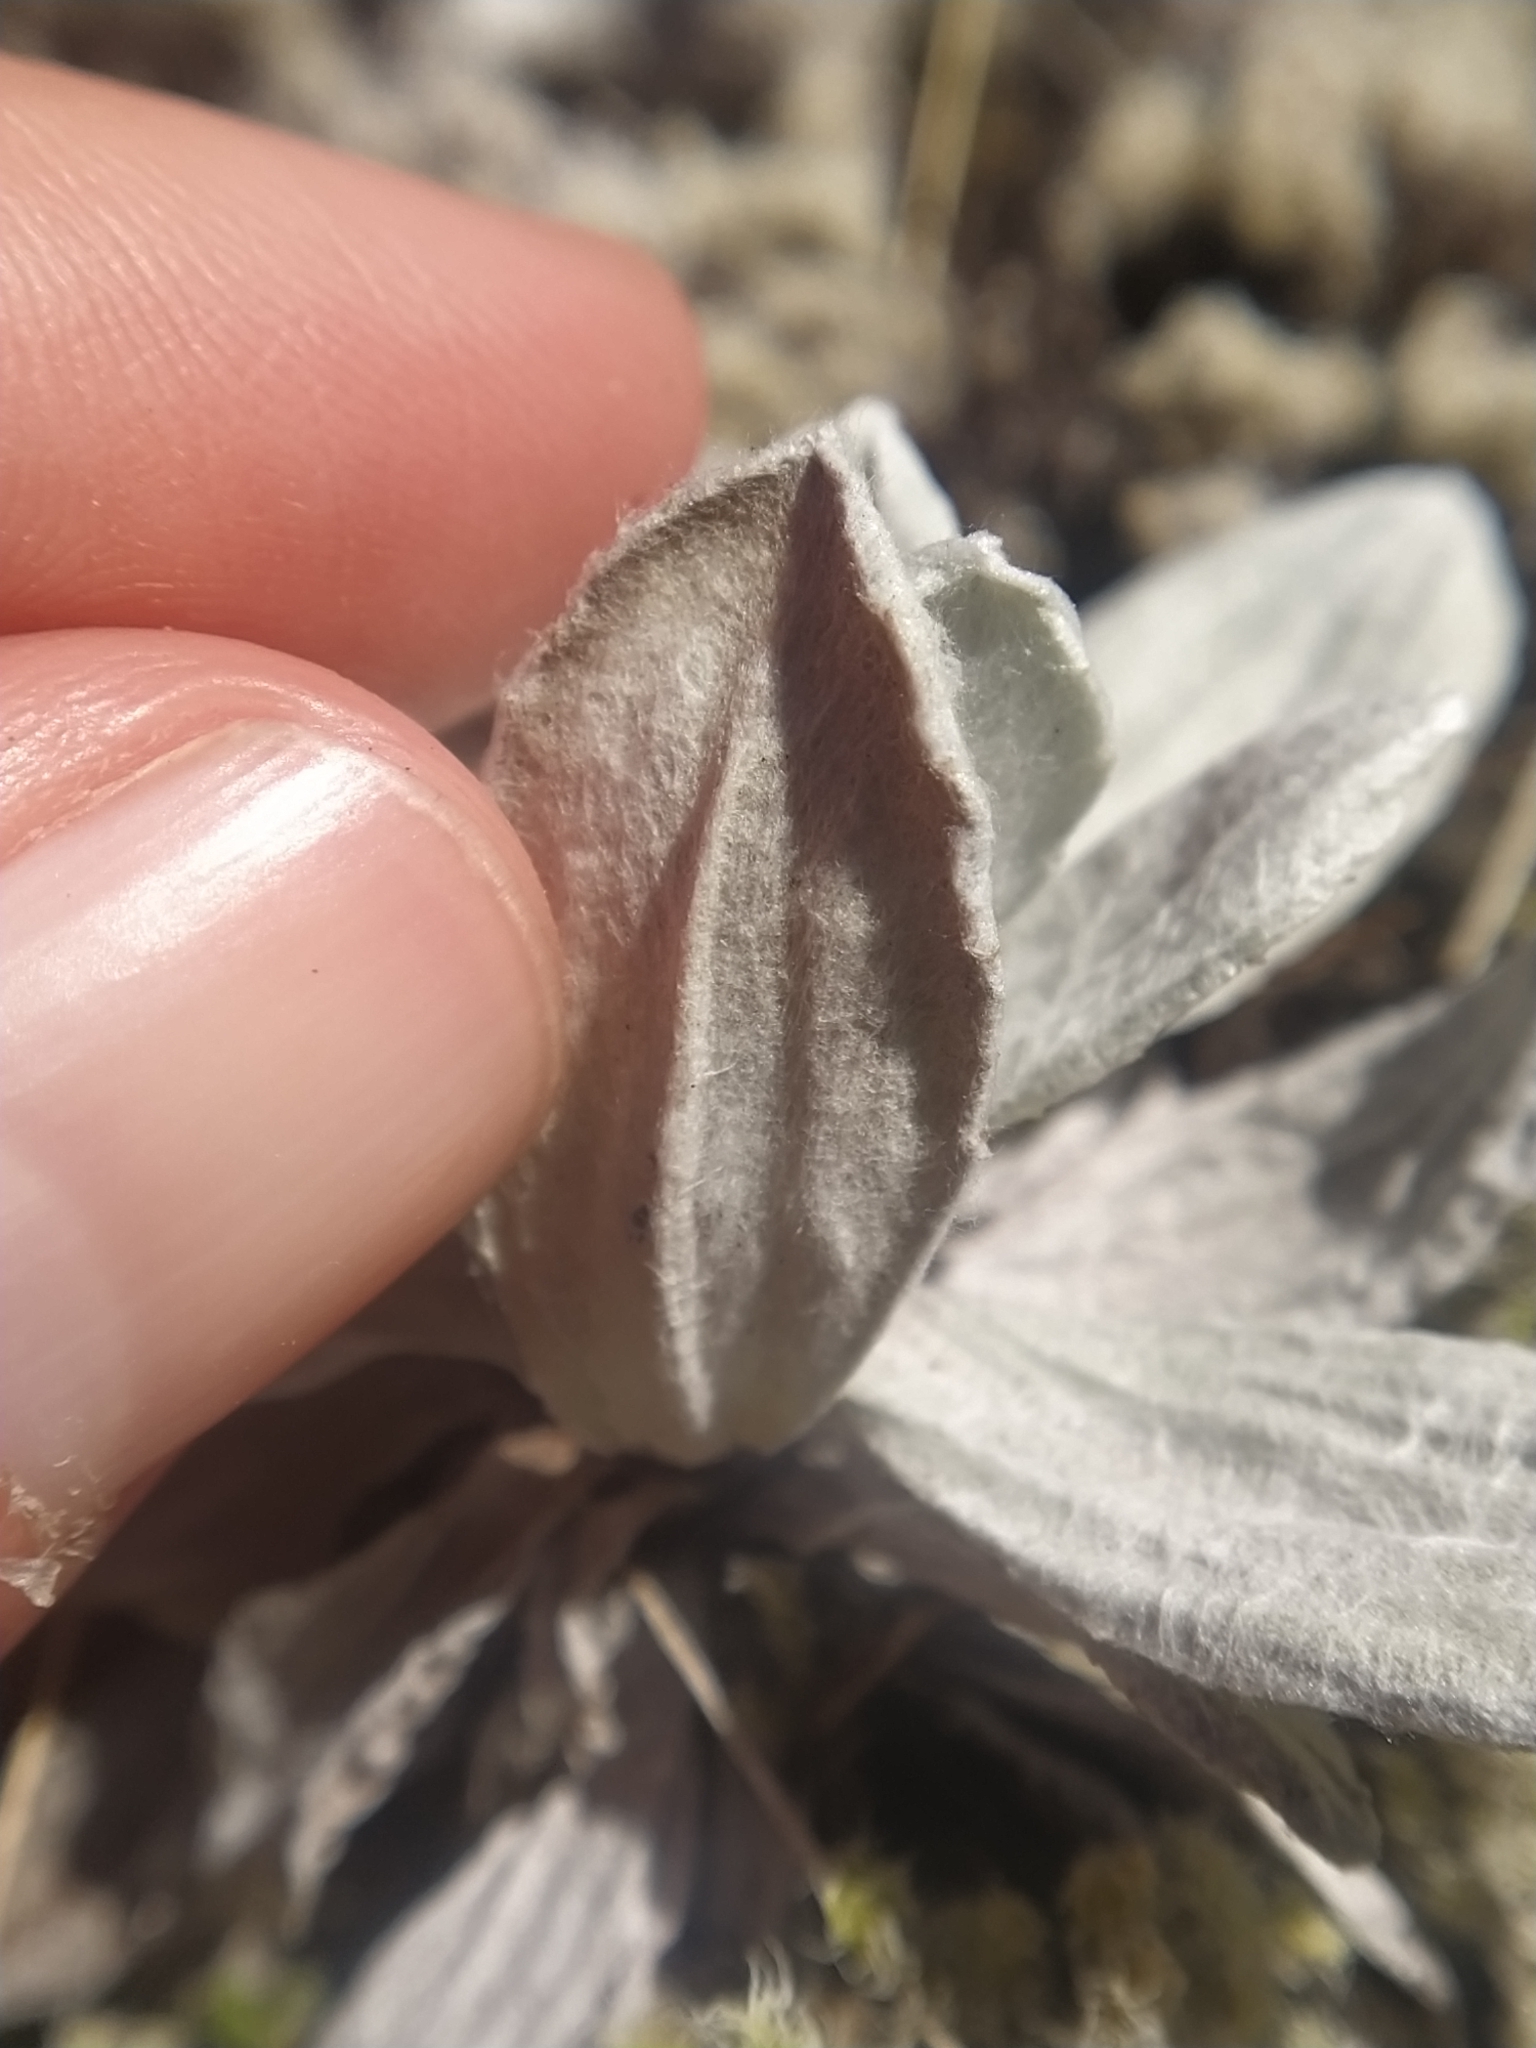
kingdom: Plantae
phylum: Tracheophyta
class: Magnoliopsida
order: Asterales
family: Asteraceae
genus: Celmisia
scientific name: Celmisia incana
